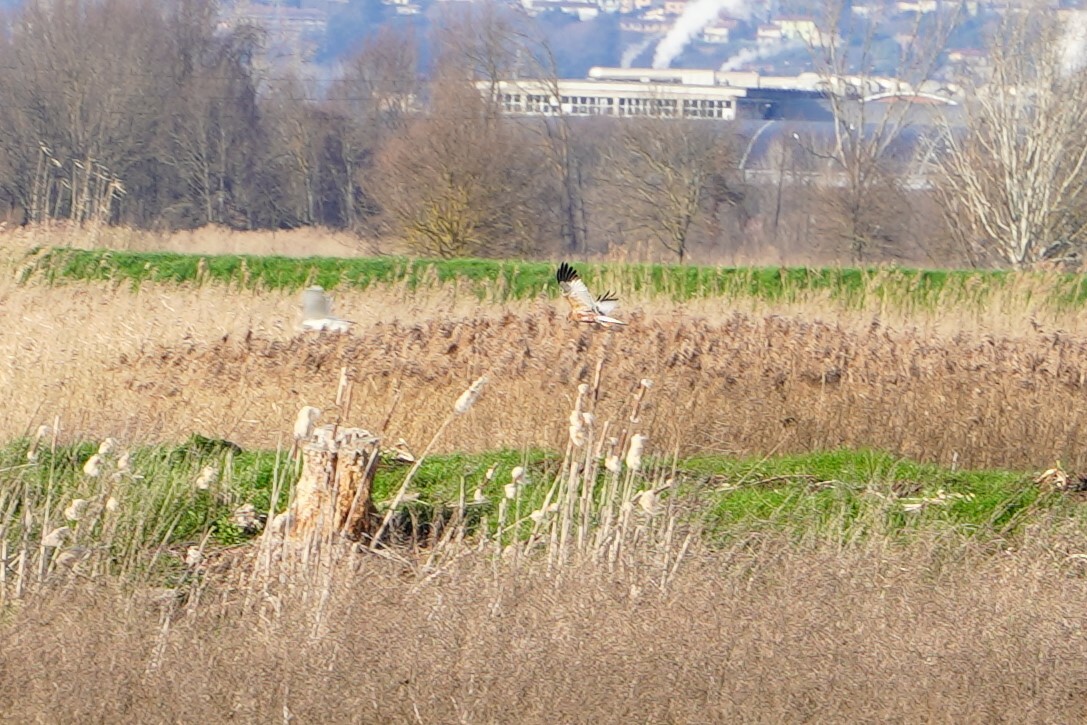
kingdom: Animalia
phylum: Chordata
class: Aves
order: Accipitriformes
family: Accipitridae
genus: Circus
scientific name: Circus aeruginosus
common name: Western marsh harrier
